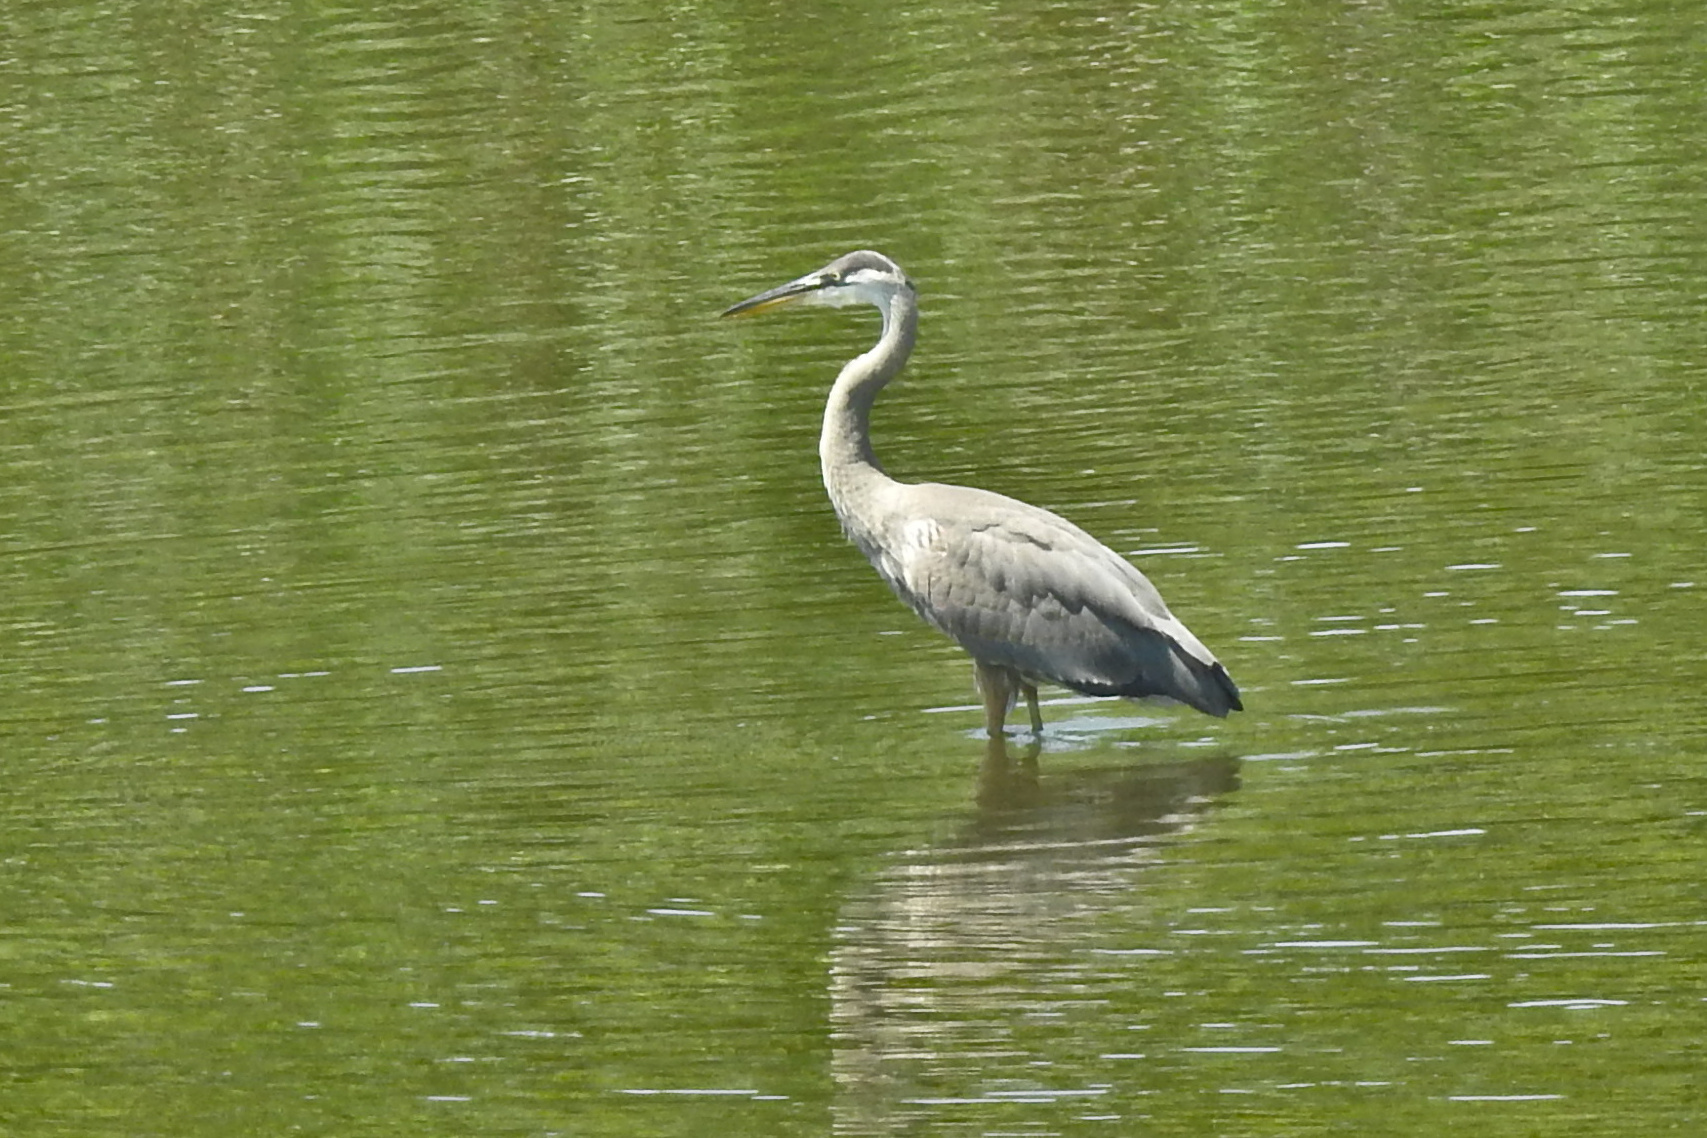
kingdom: Animalia
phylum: Chordata
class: Aves
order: Pelecaniformes
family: Ardeidae
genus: Ardea
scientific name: Ardea herodias
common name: Great blue heron
